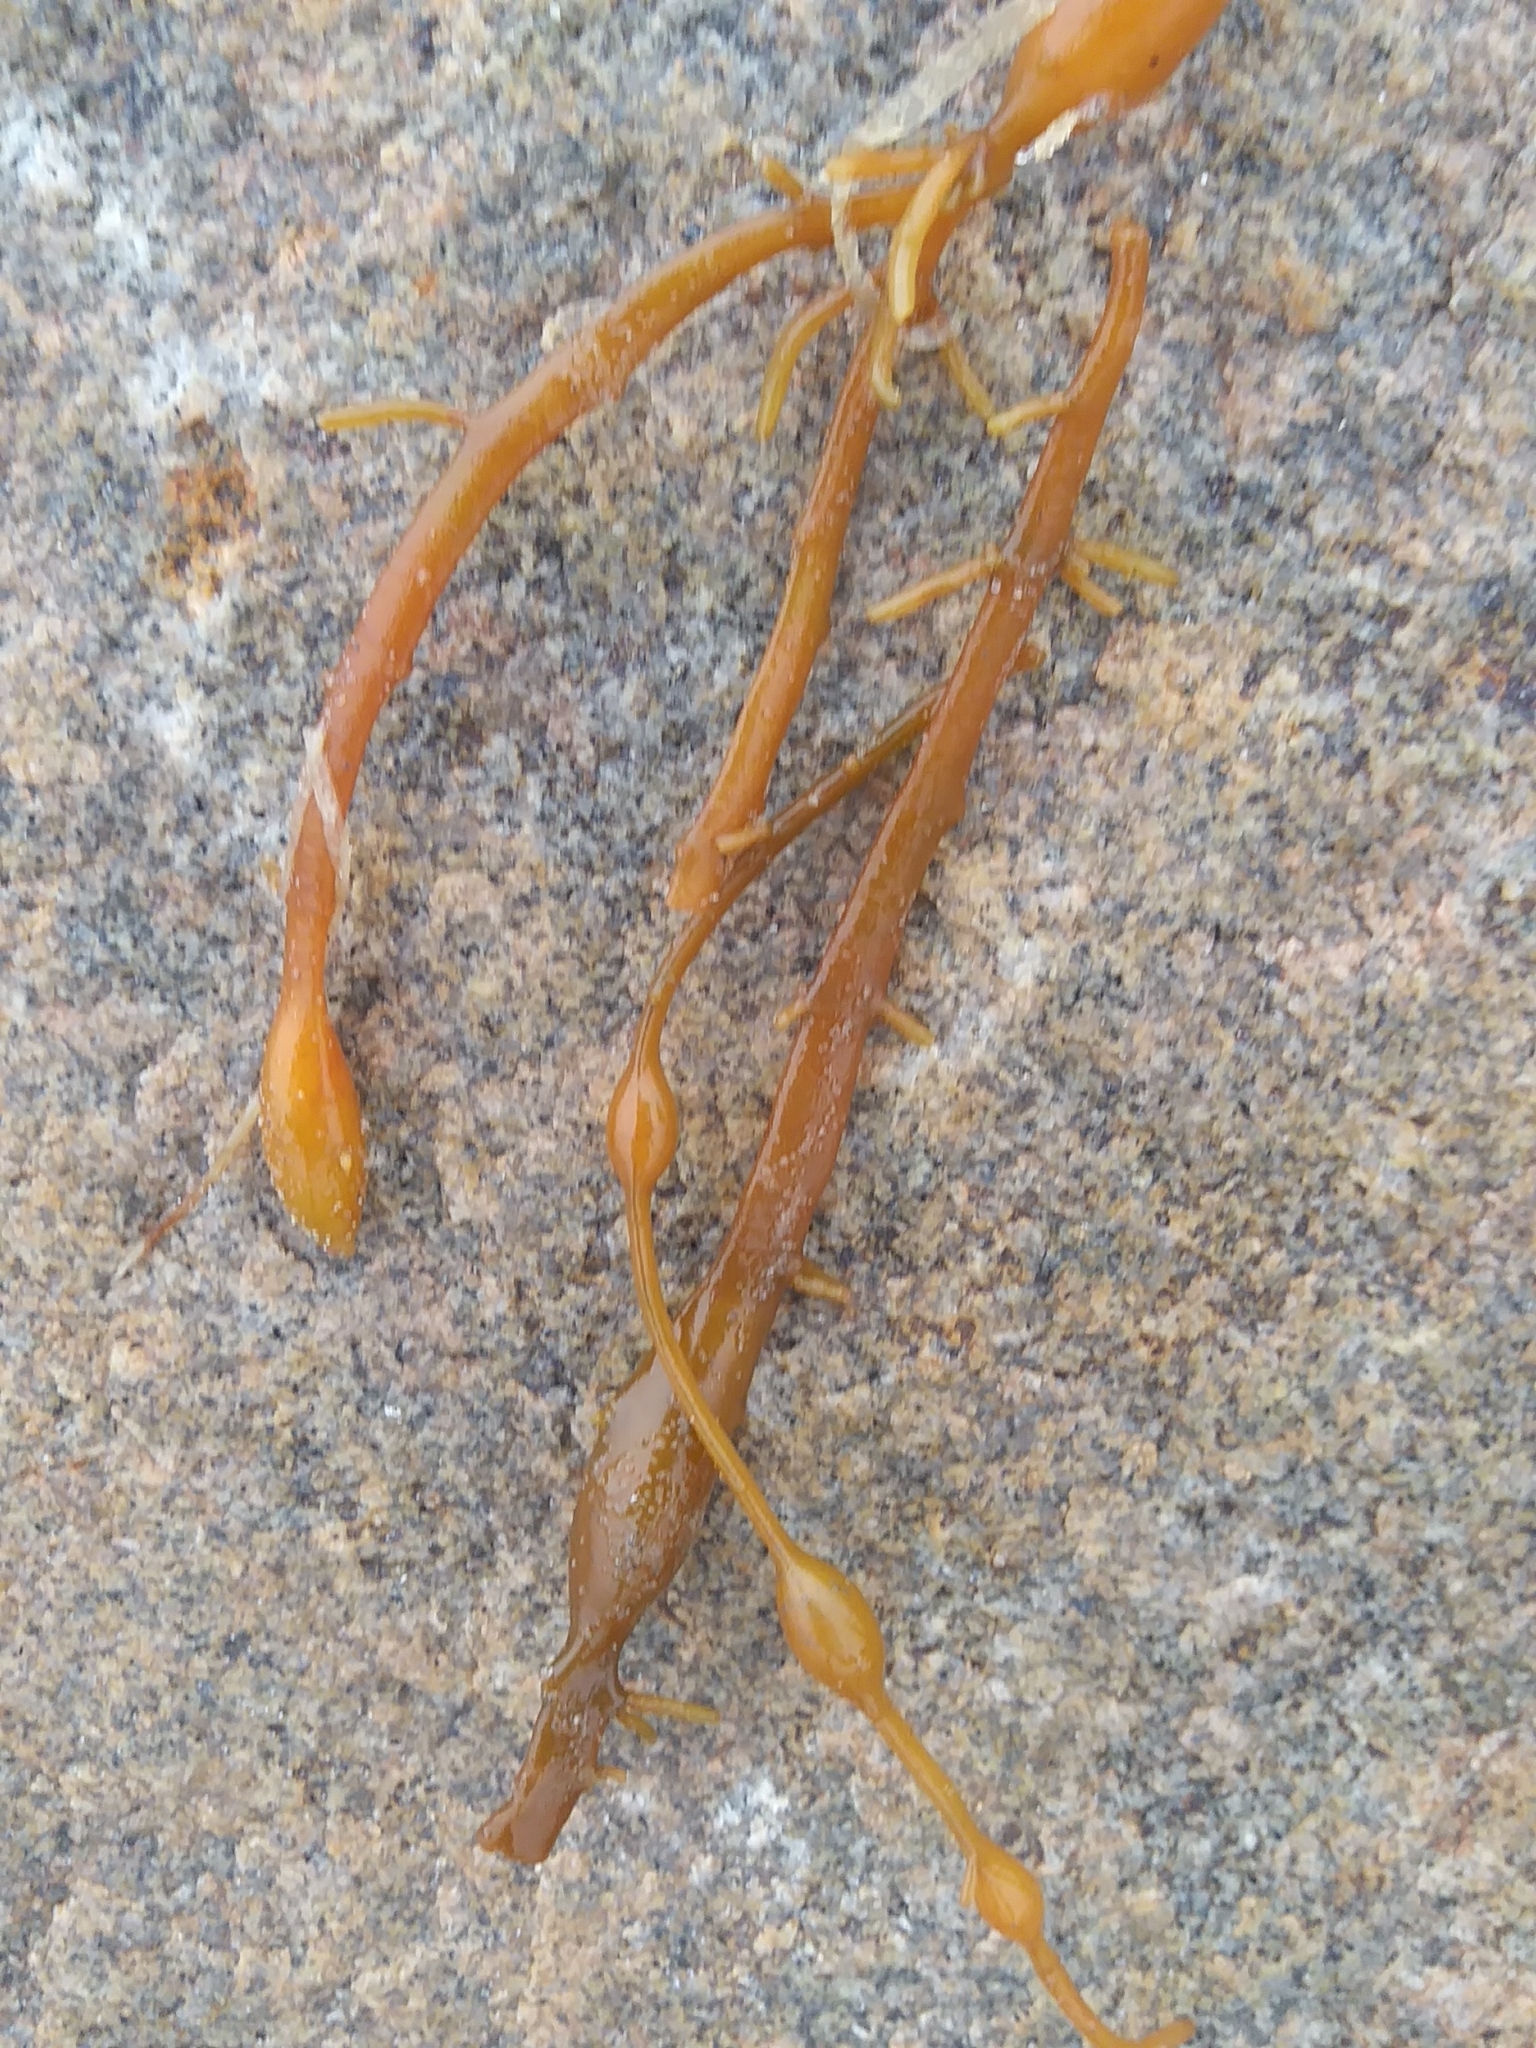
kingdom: Chromista
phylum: Ochrophyta
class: Phaeophyceae
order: Fucales
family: Fucaceae
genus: Ascophyllum
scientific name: Ascophyllum nodosum
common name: Knotted wrack
